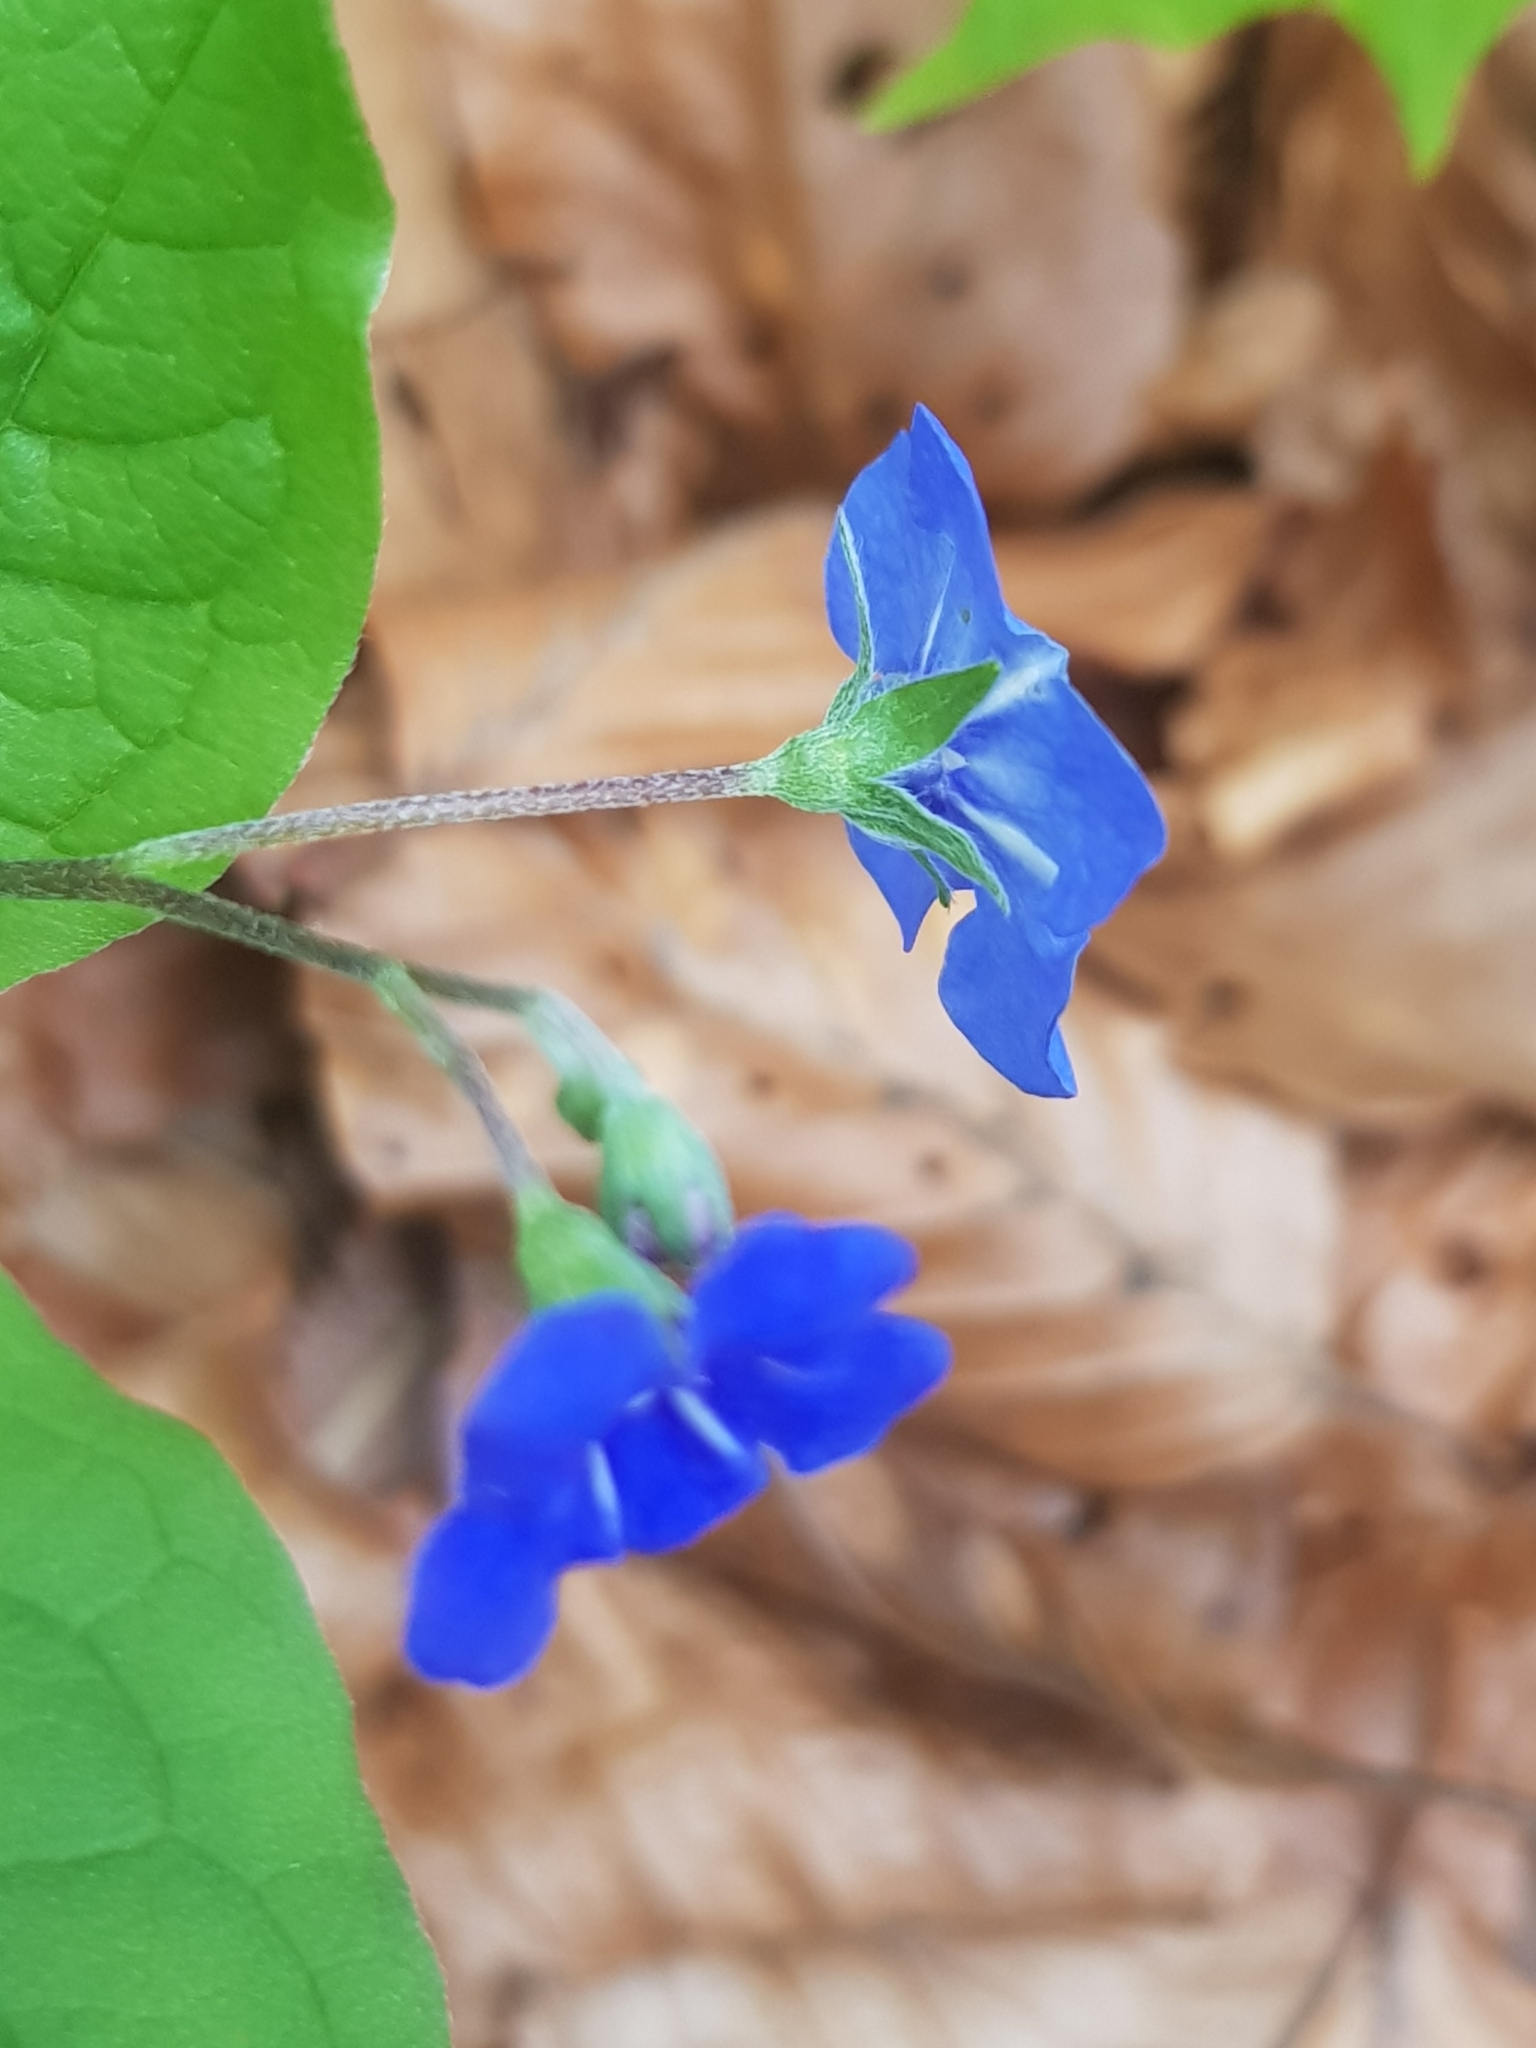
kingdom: Plantae
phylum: Tracheophyta
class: Magnoliopsida
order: Boraginales
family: Boraginaceae
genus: Omphalodes
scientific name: Omphalodes verna
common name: Blue-eyed-mary
